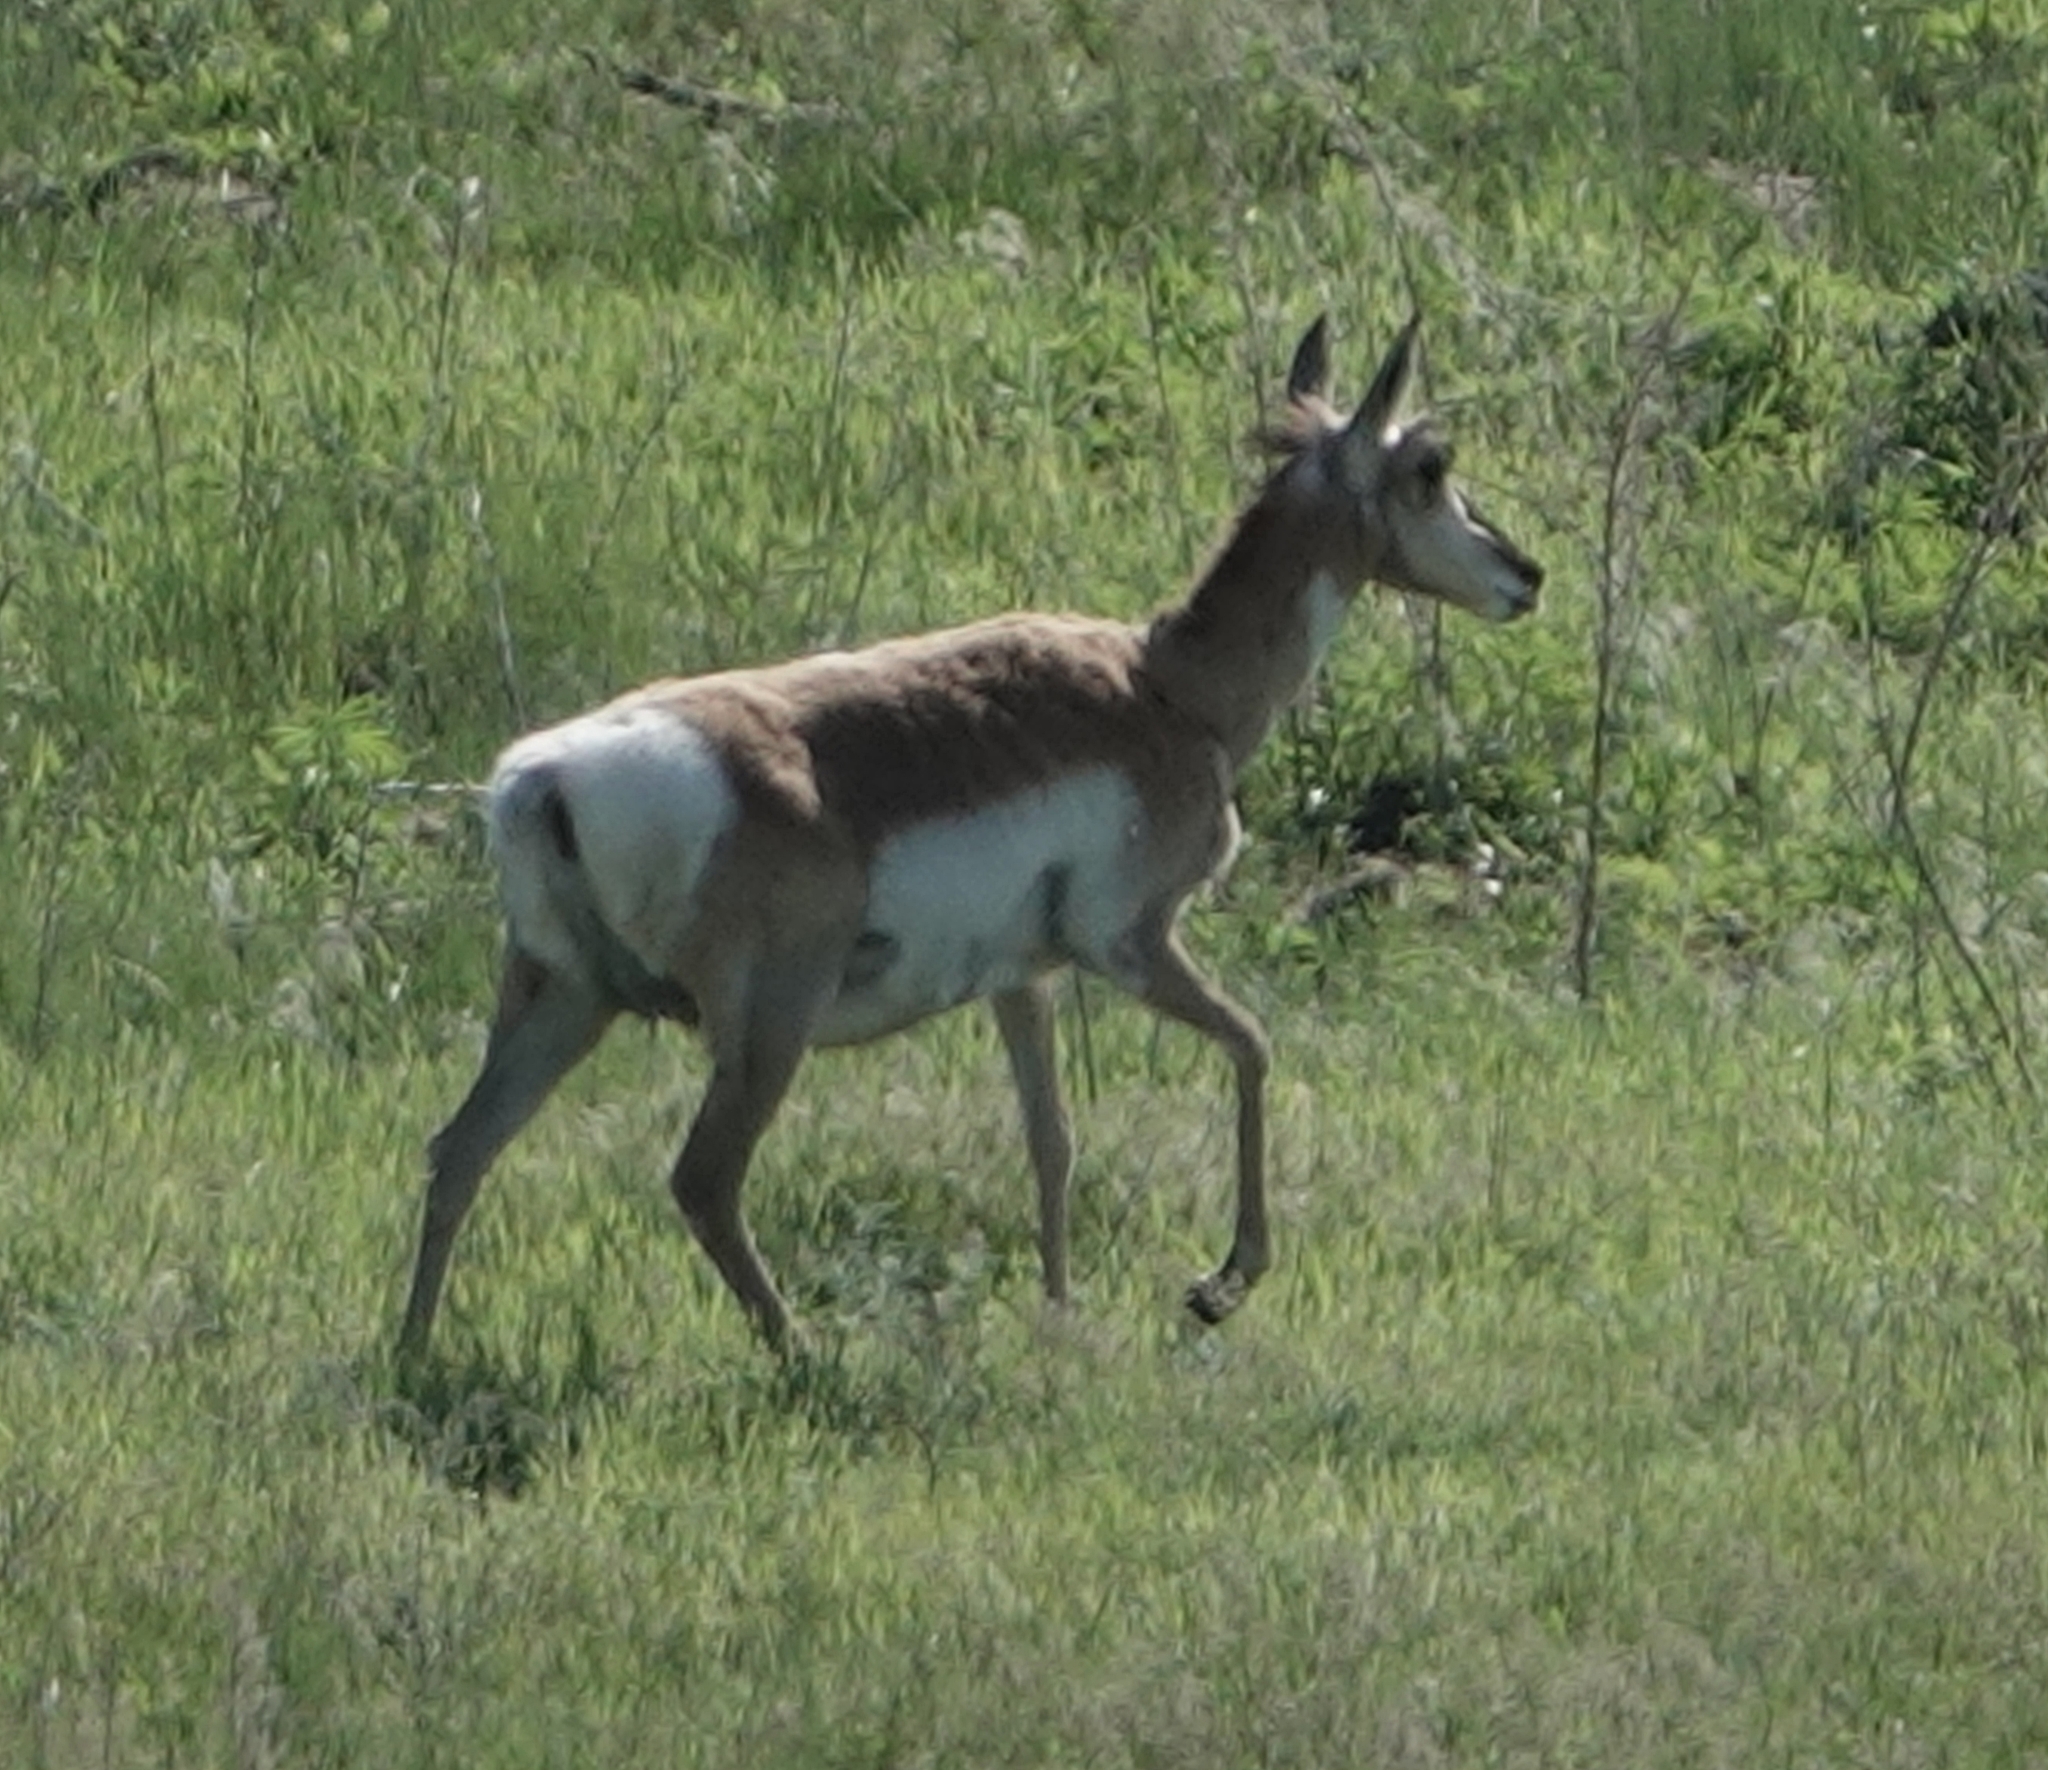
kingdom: Animalia
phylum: Chordata
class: Mammalia
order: Artiodactyla
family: Antilocapridae
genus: Antilocapra
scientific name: Antilocapra americana
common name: Pronghorn
